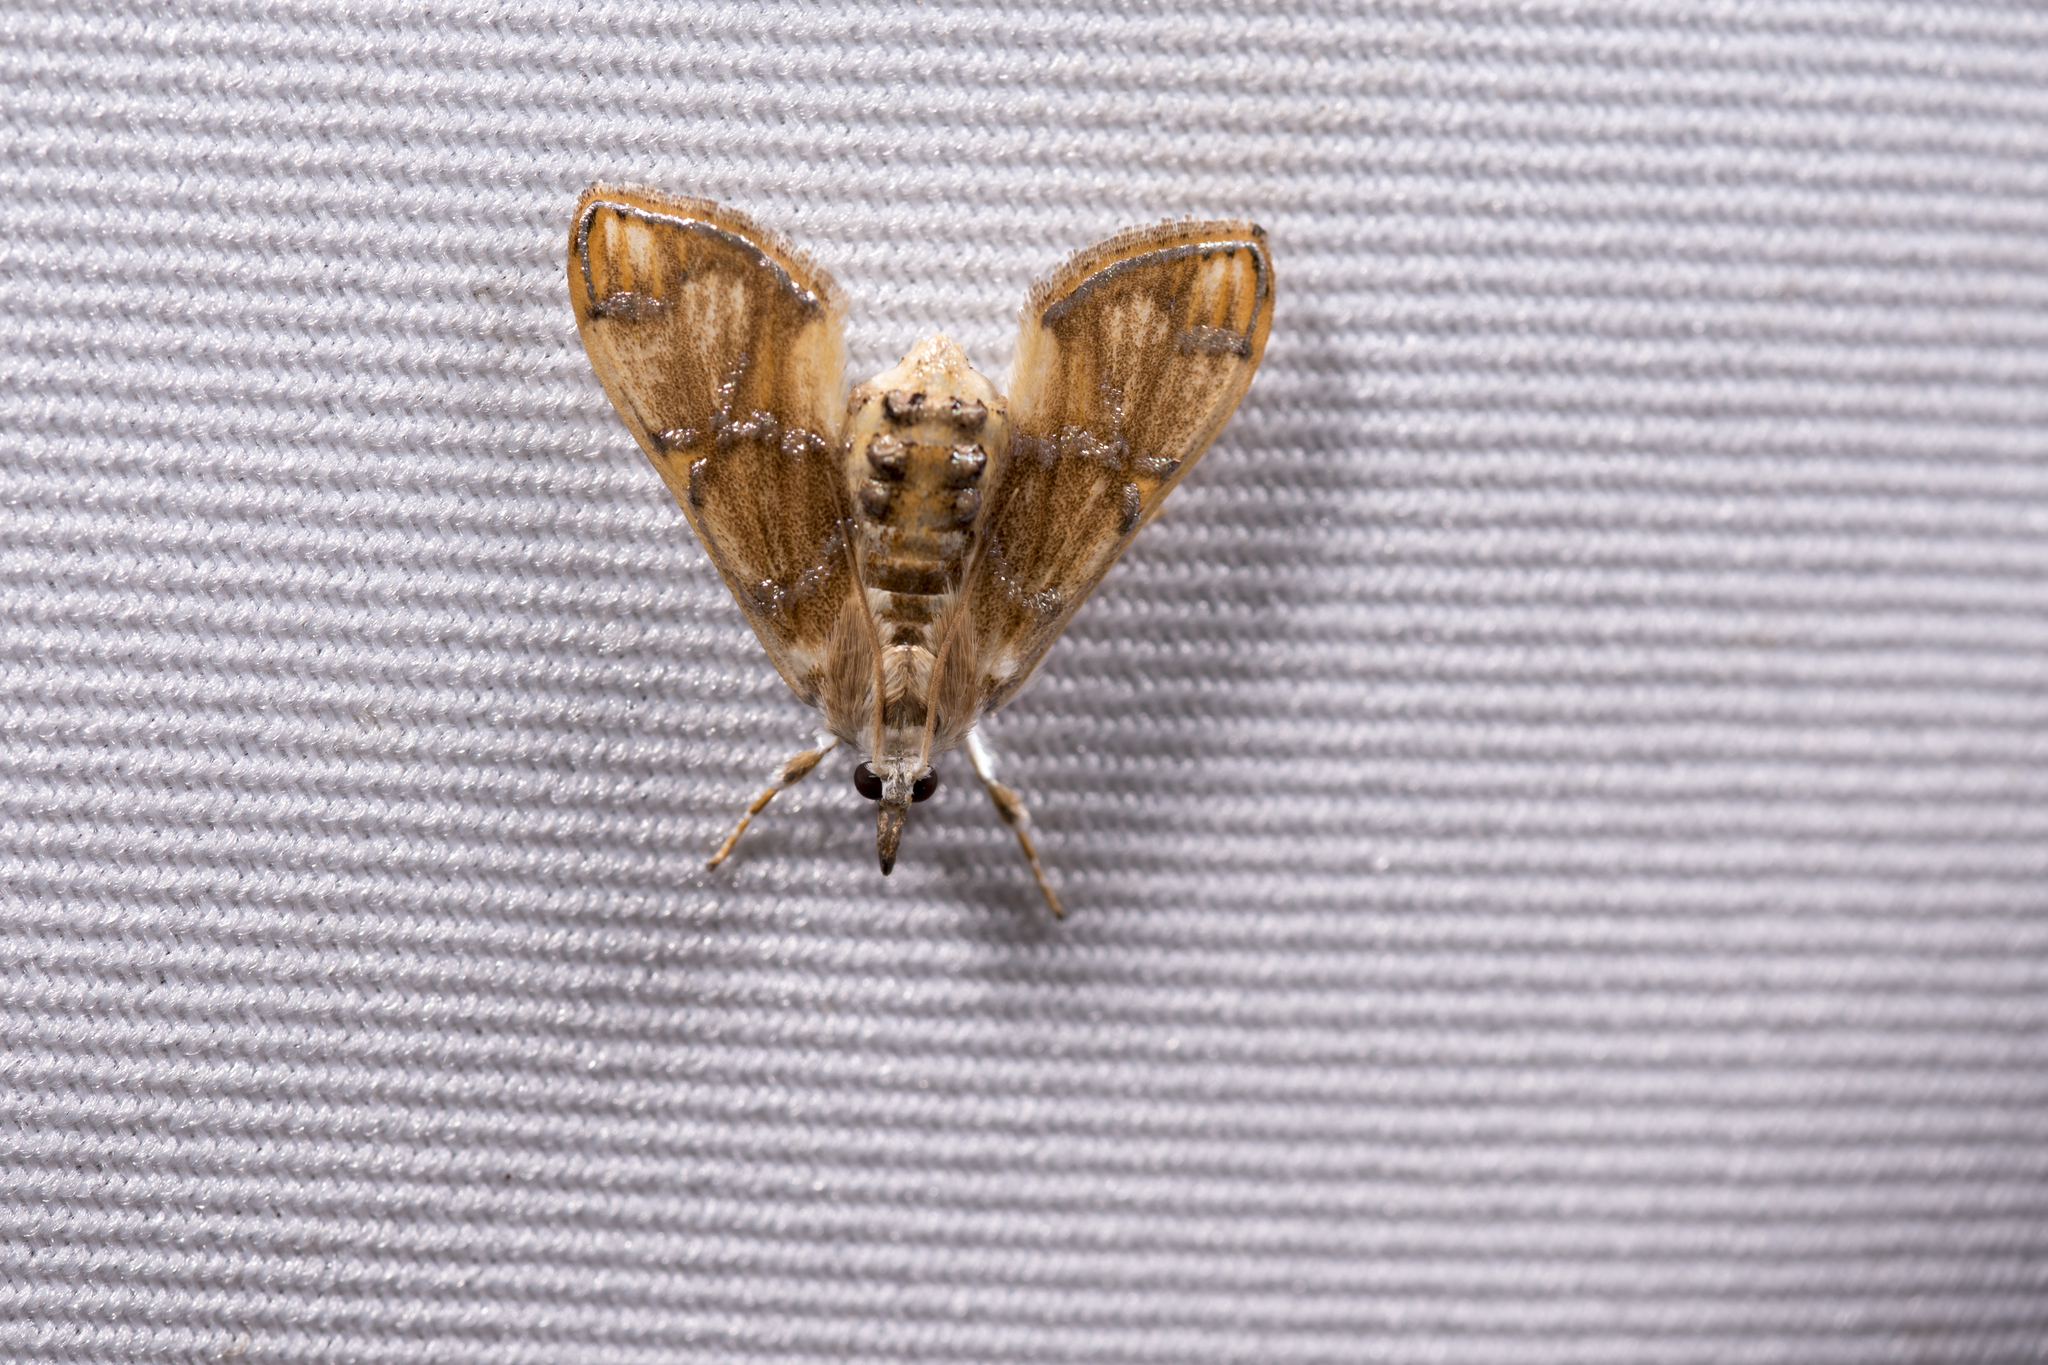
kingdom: Animalia
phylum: Arthropoda
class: Insecta
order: Lepidoptera
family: Crambidae
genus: Cirrhochrista
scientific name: Cirrhochrista fuscusa
